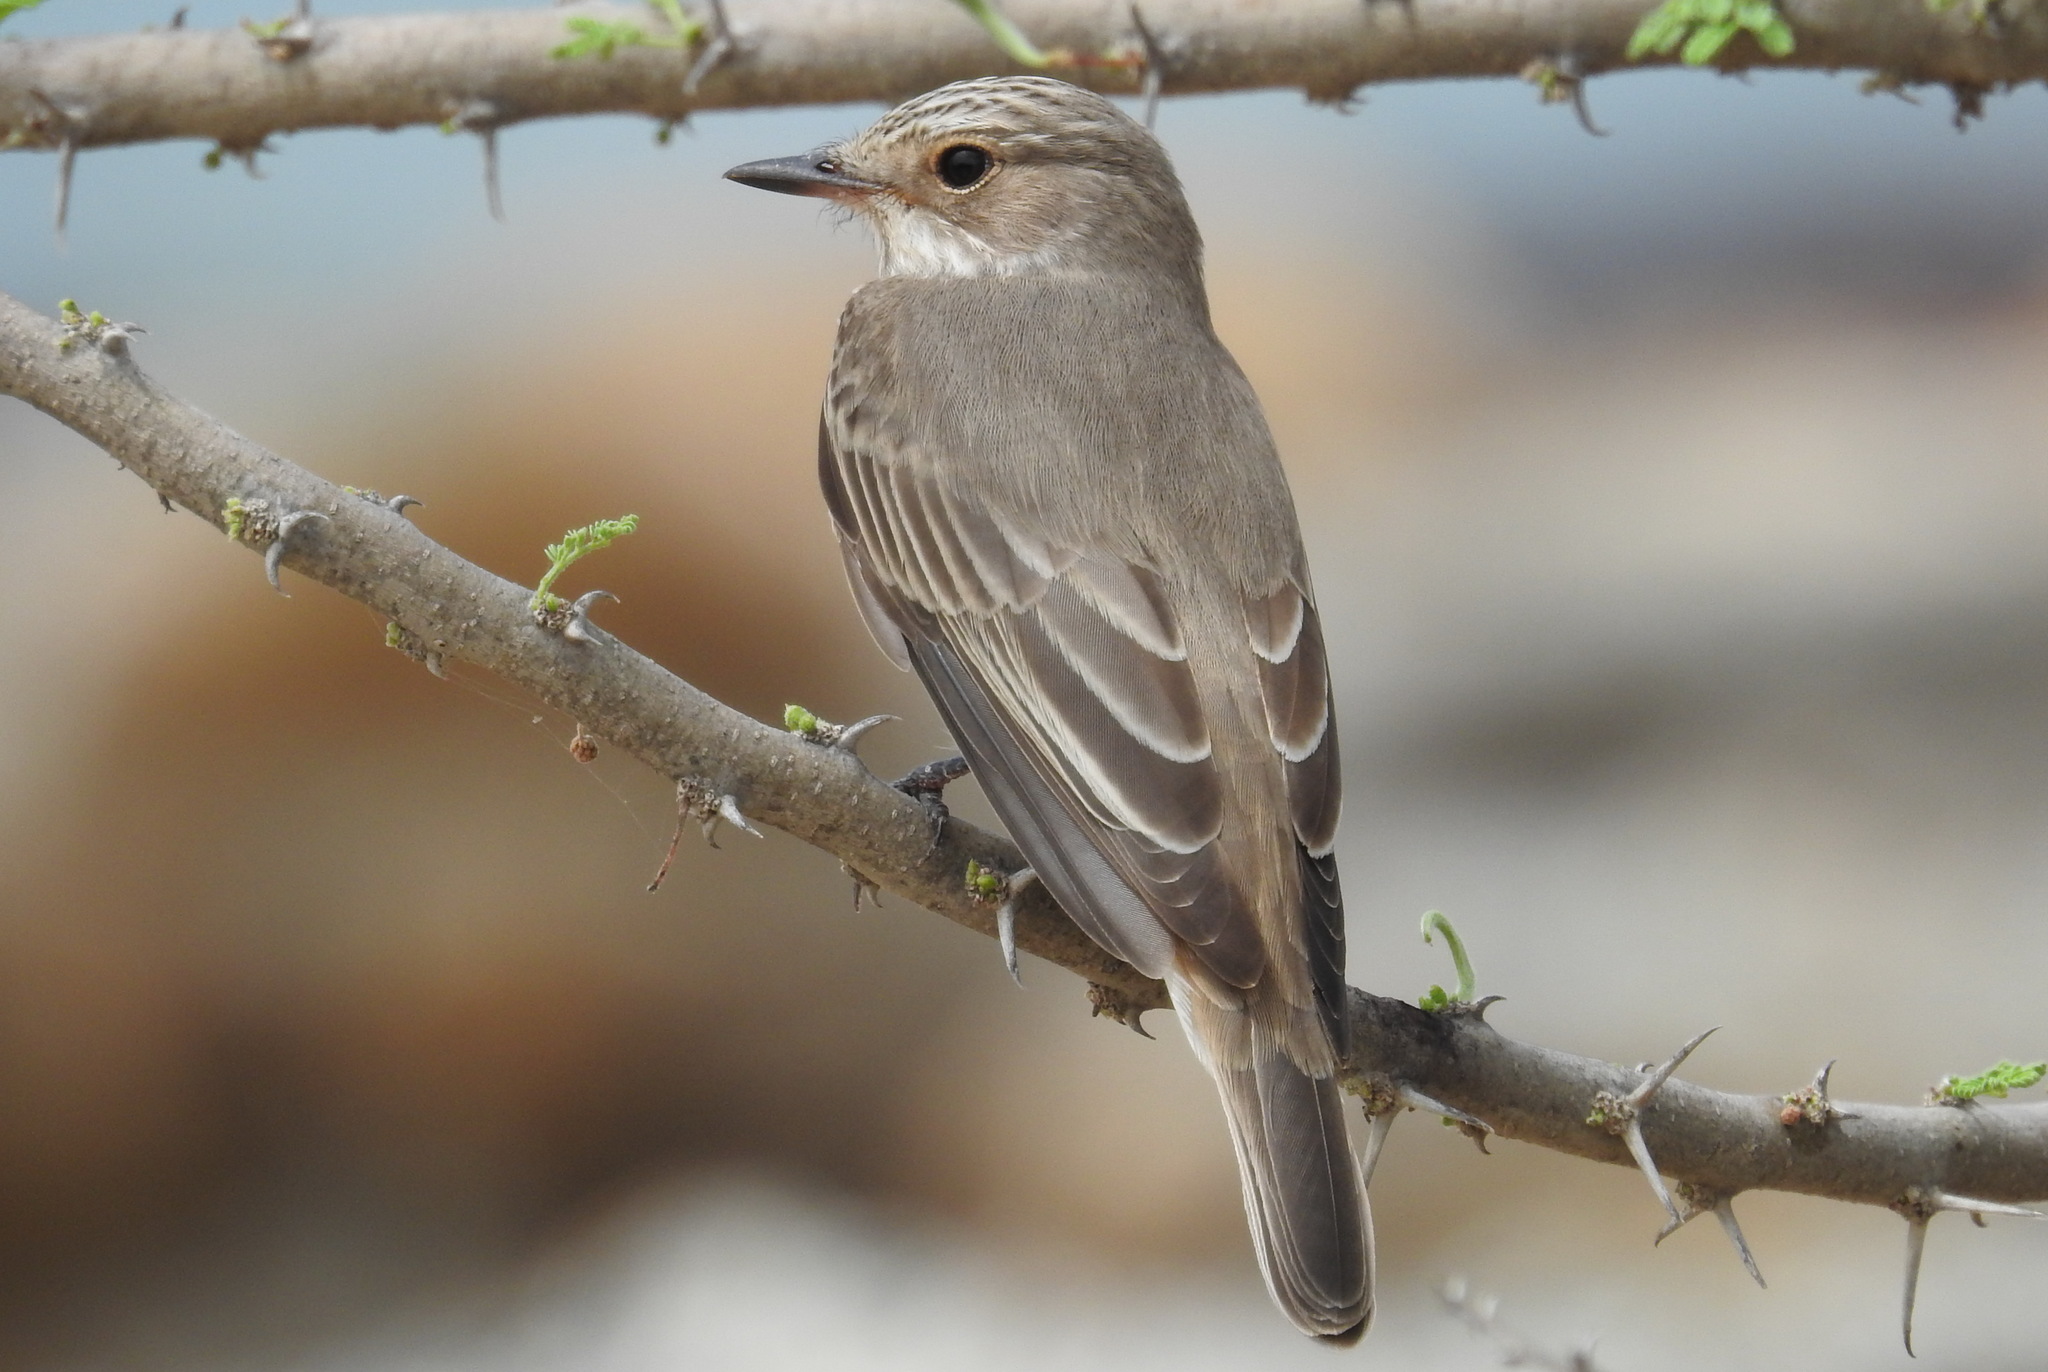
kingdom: Animalia
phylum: Chordata
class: Aves
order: Passeriformes
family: Muscicapidae
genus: Muscicapa
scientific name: Muscicapa striata
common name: Spotted flycatcher
